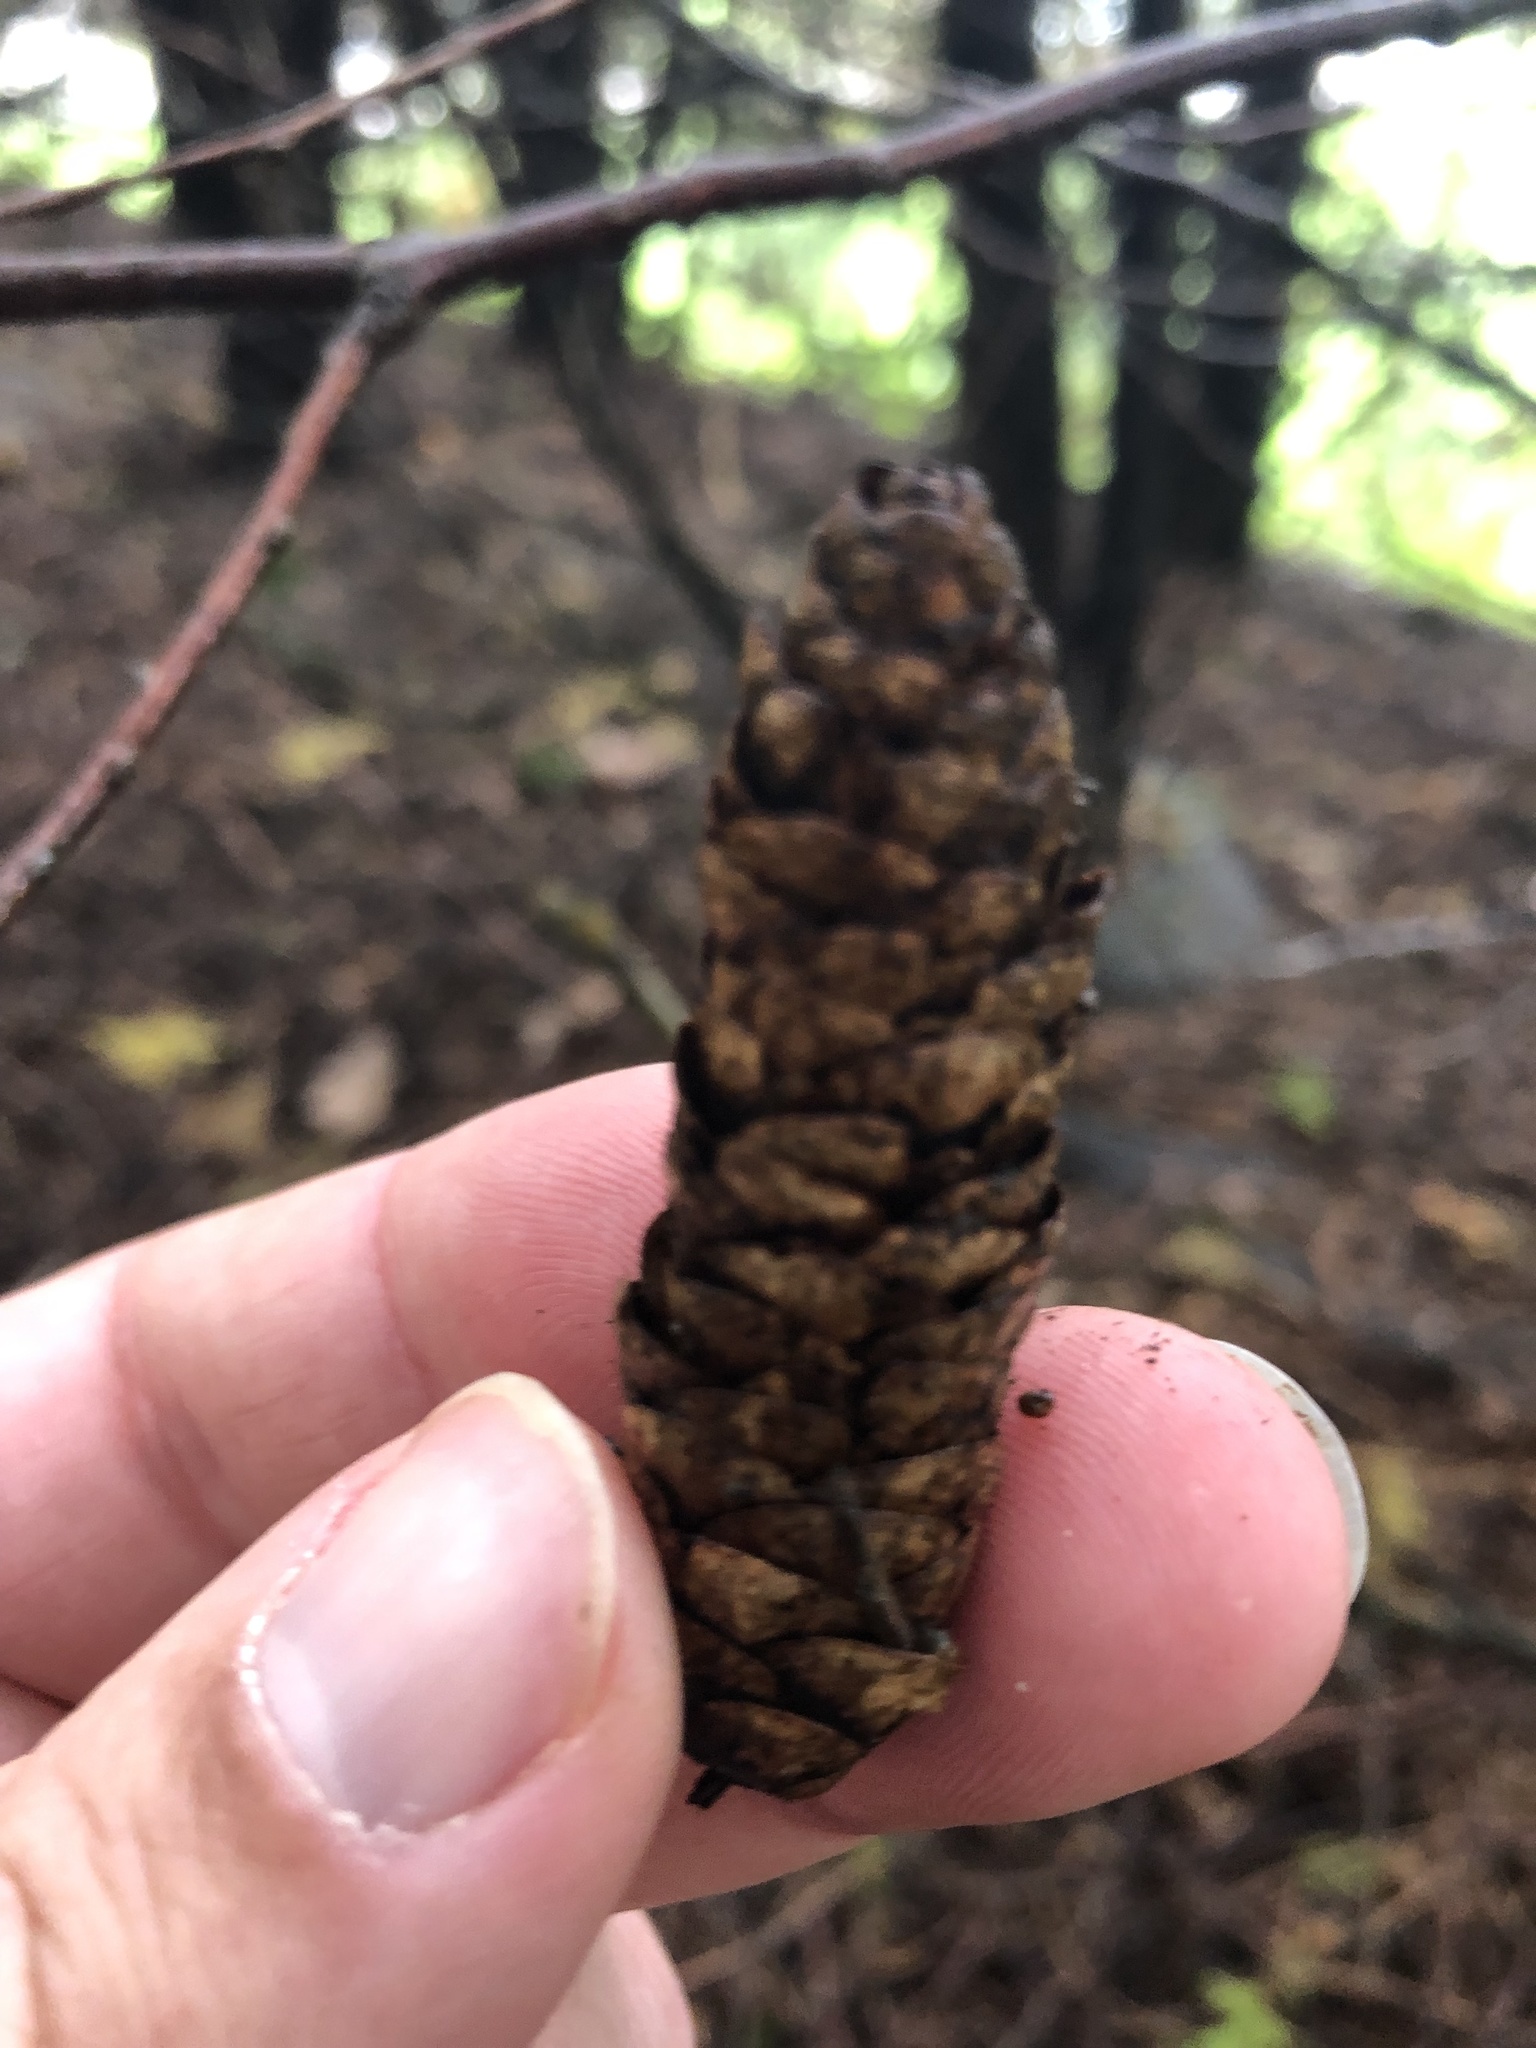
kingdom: Plantae
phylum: Tracheophyta
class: Pinopsida
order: Pinales
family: Pinaceae
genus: Picea
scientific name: Picea glauca
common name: White spruce
